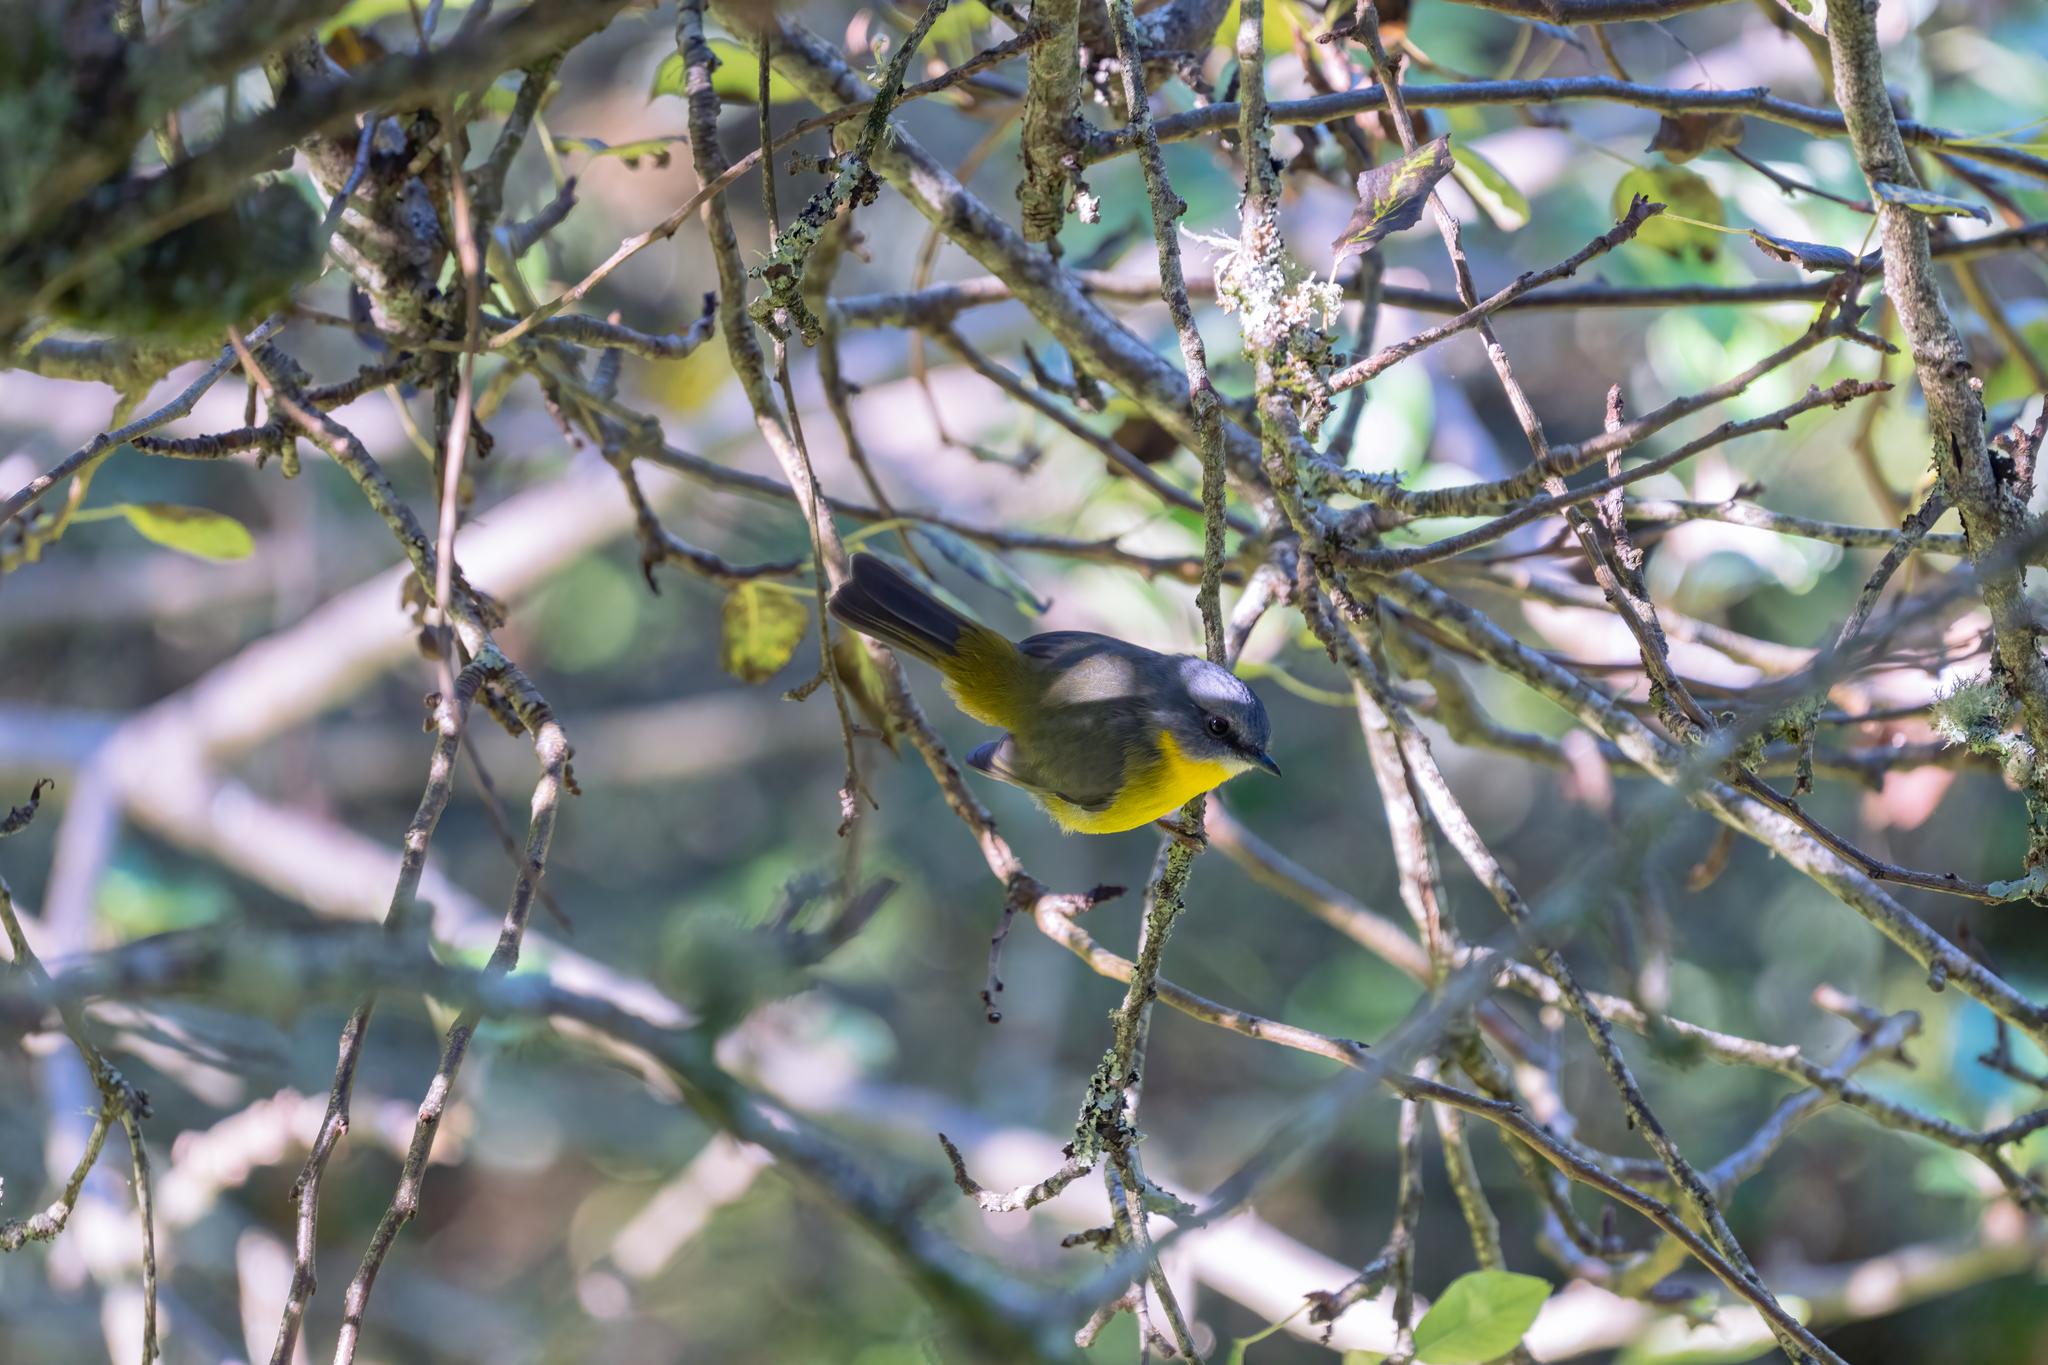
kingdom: Animalia
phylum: Chordata
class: Aves
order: Passeriformes
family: Petroicidae
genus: Eopsaltria
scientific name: Eopsaltria australis
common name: Eastern yellow robin
